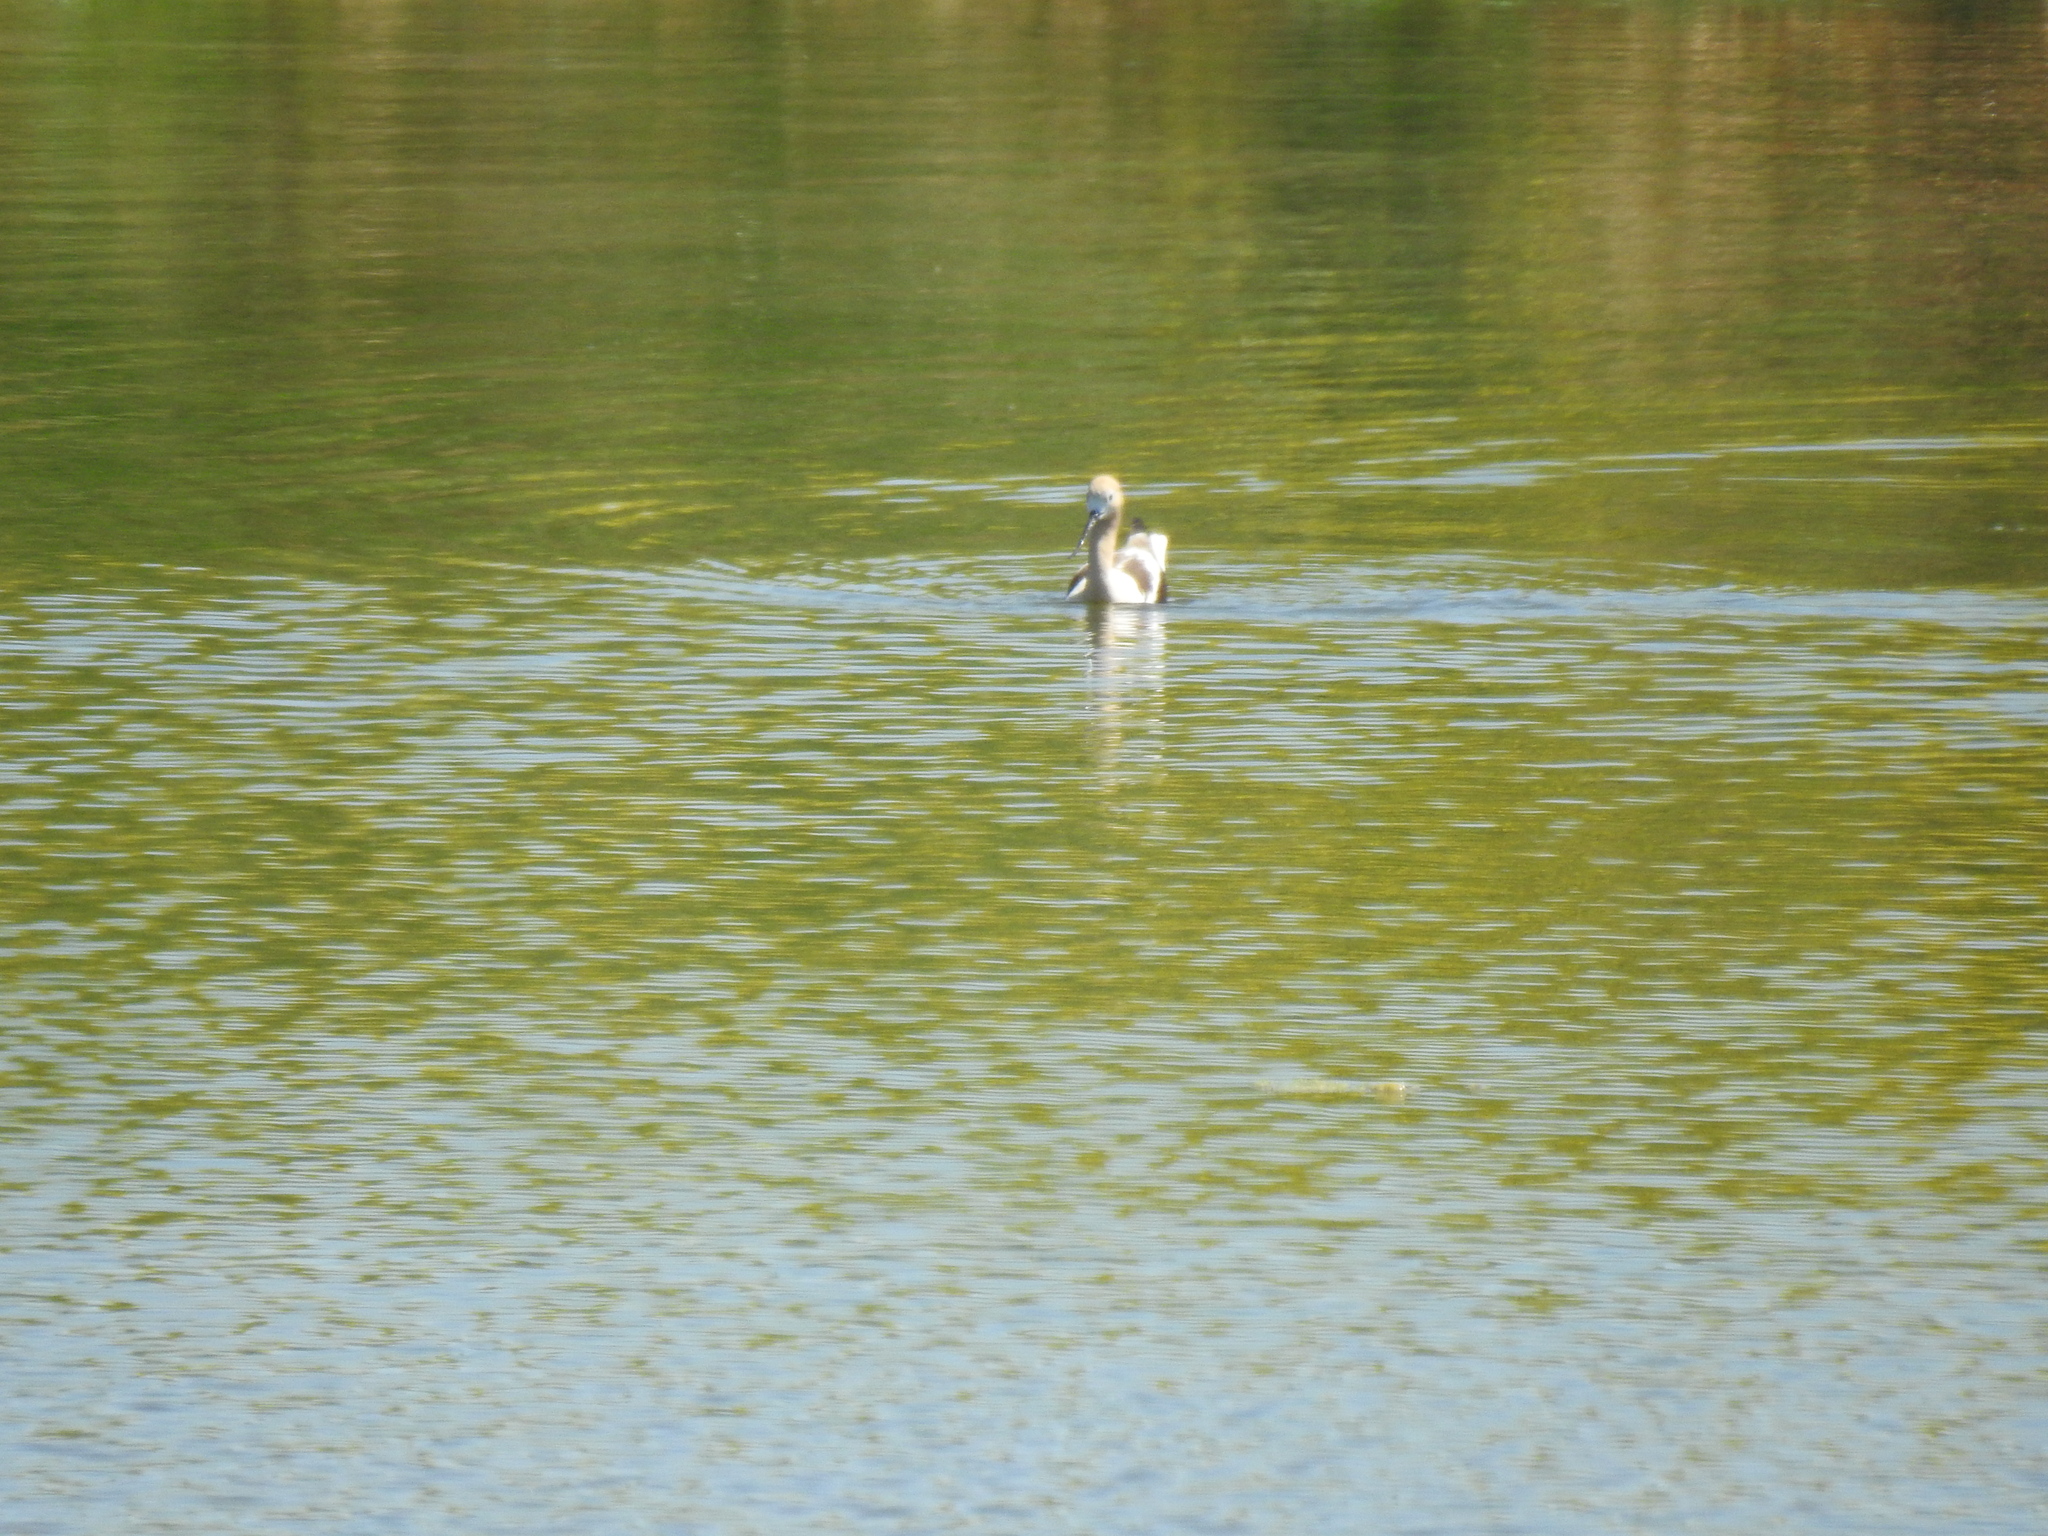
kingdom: Animalia
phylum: Chordata
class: Aves
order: Charadriiformes
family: Recurvirostridae
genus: Recurvirostra
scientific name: Recurvirostra americana
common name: American avocet
